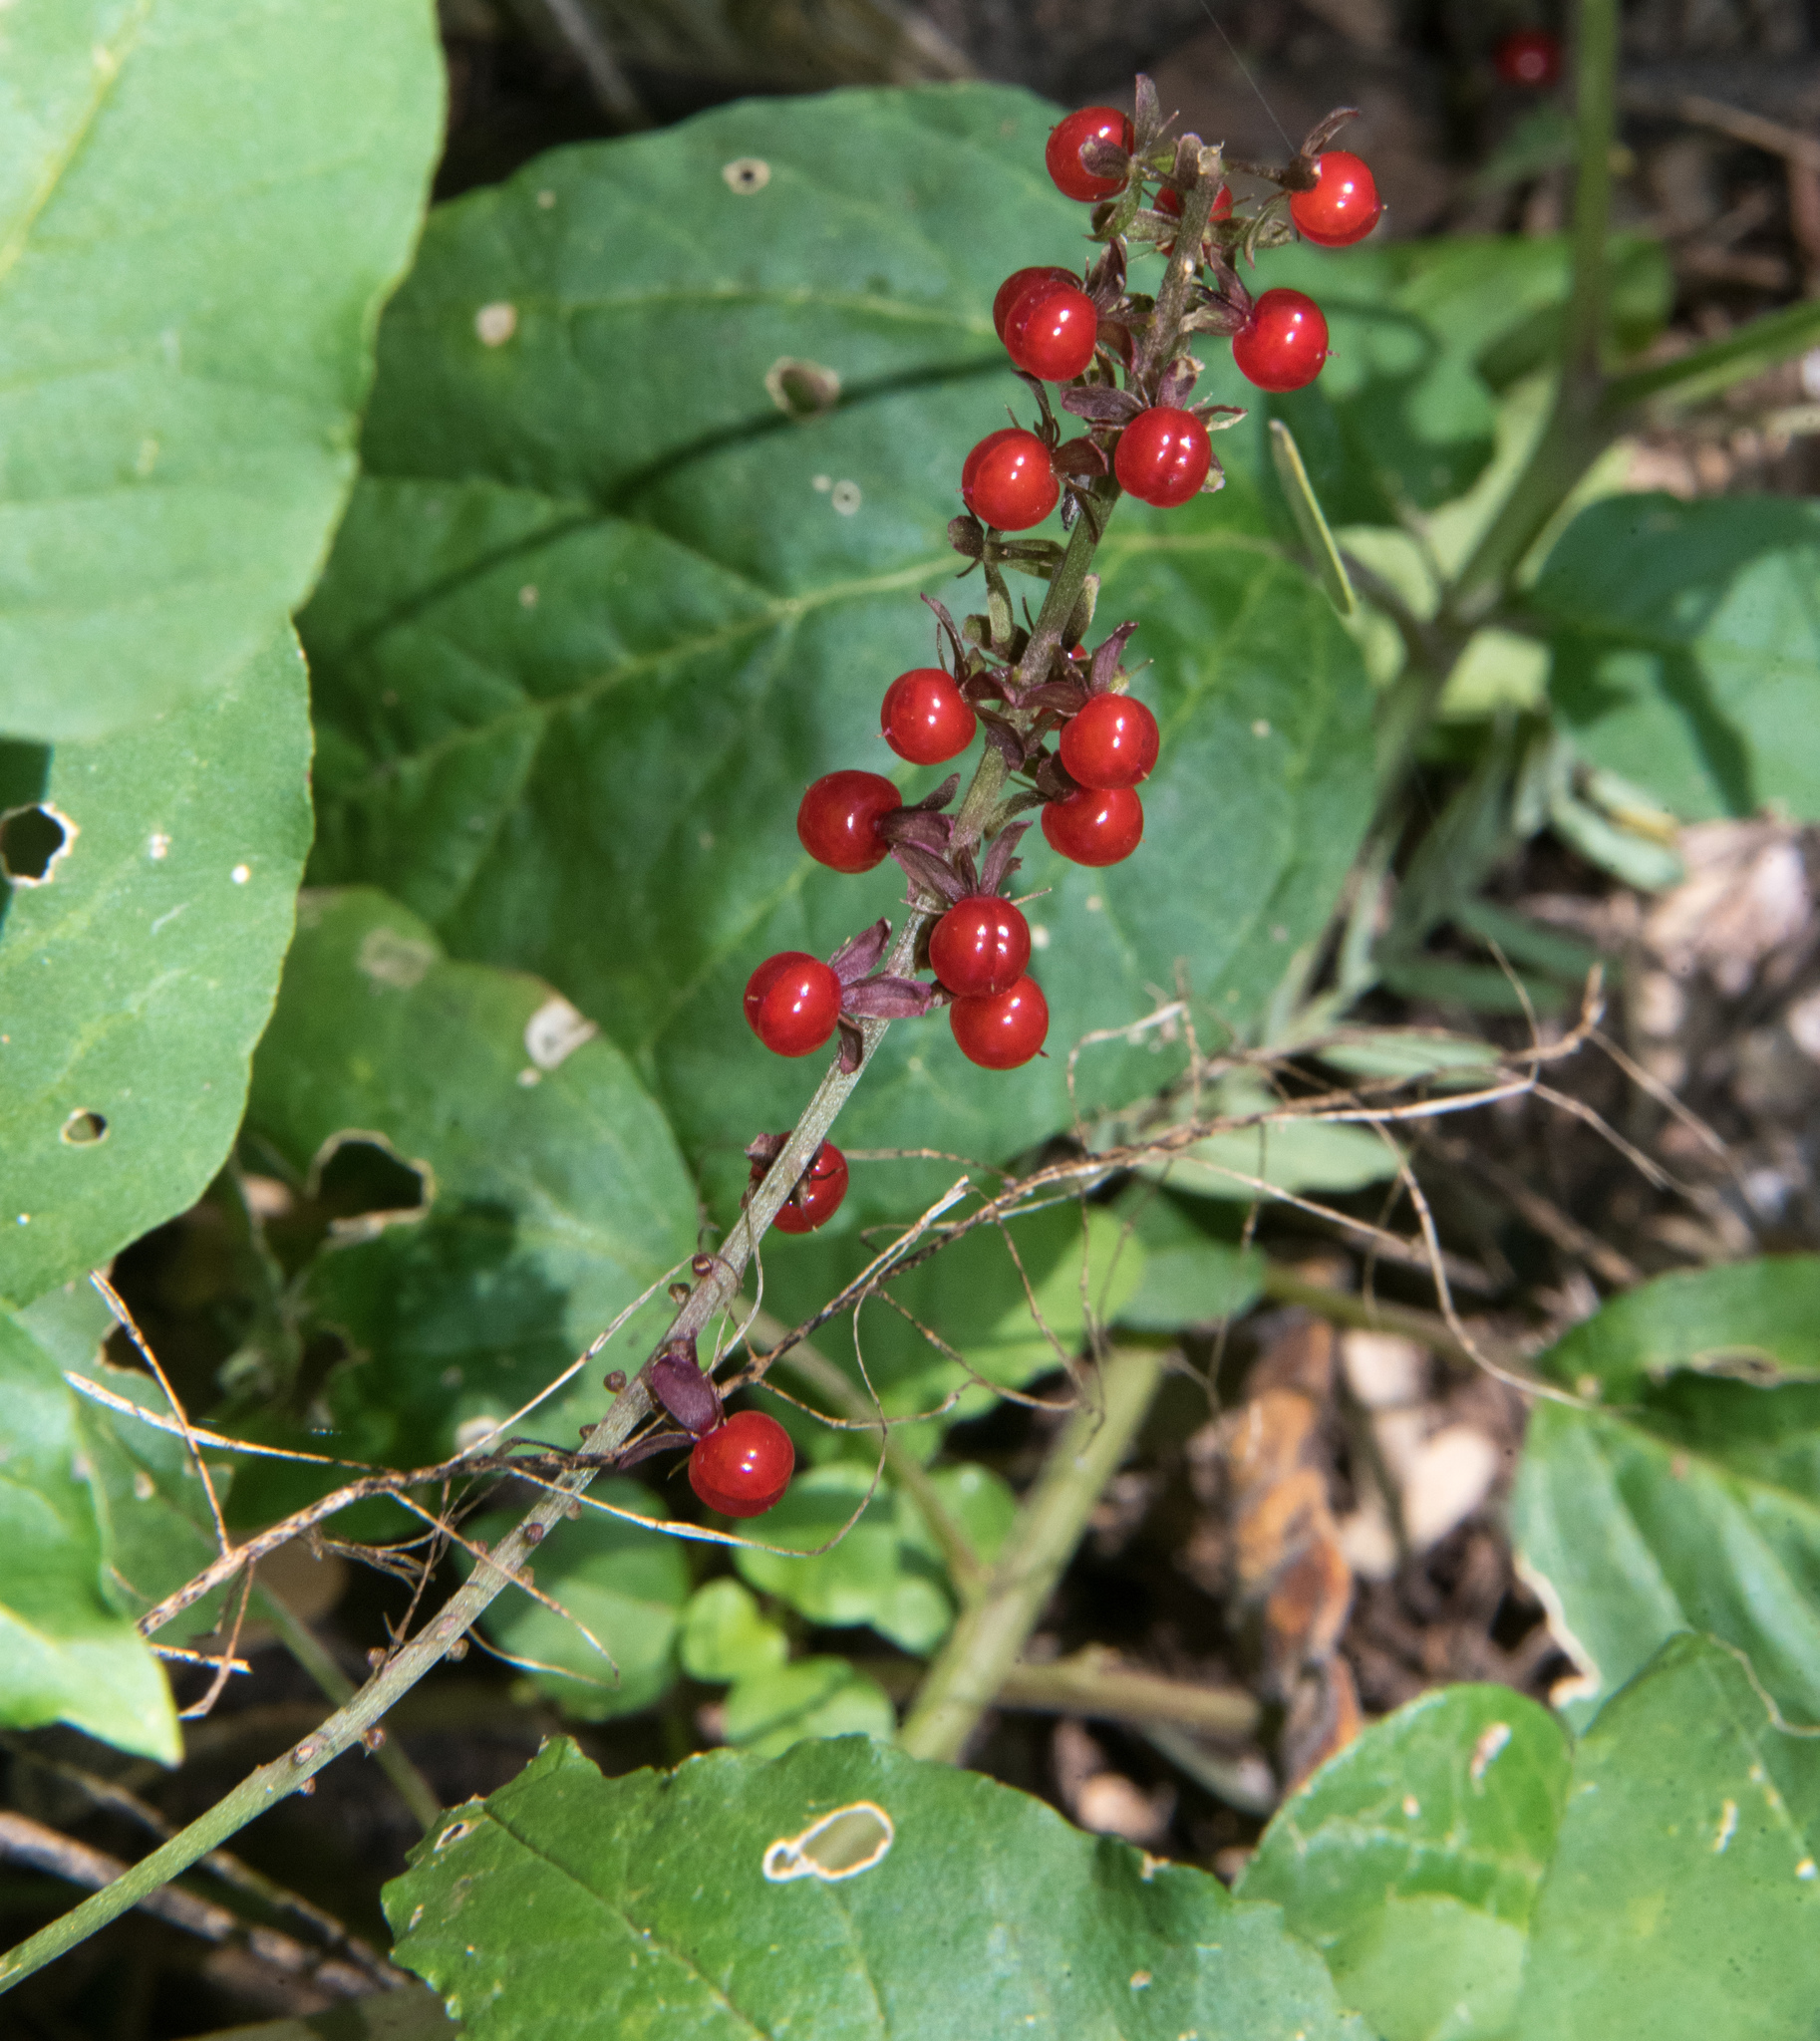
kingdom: Plantae
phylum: Tracheophyta
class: Magnoliopsida
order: Caryophyllales
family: Phytolaccaceae
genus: Rivina
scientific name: Rivina humilis
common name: Rougeplant
